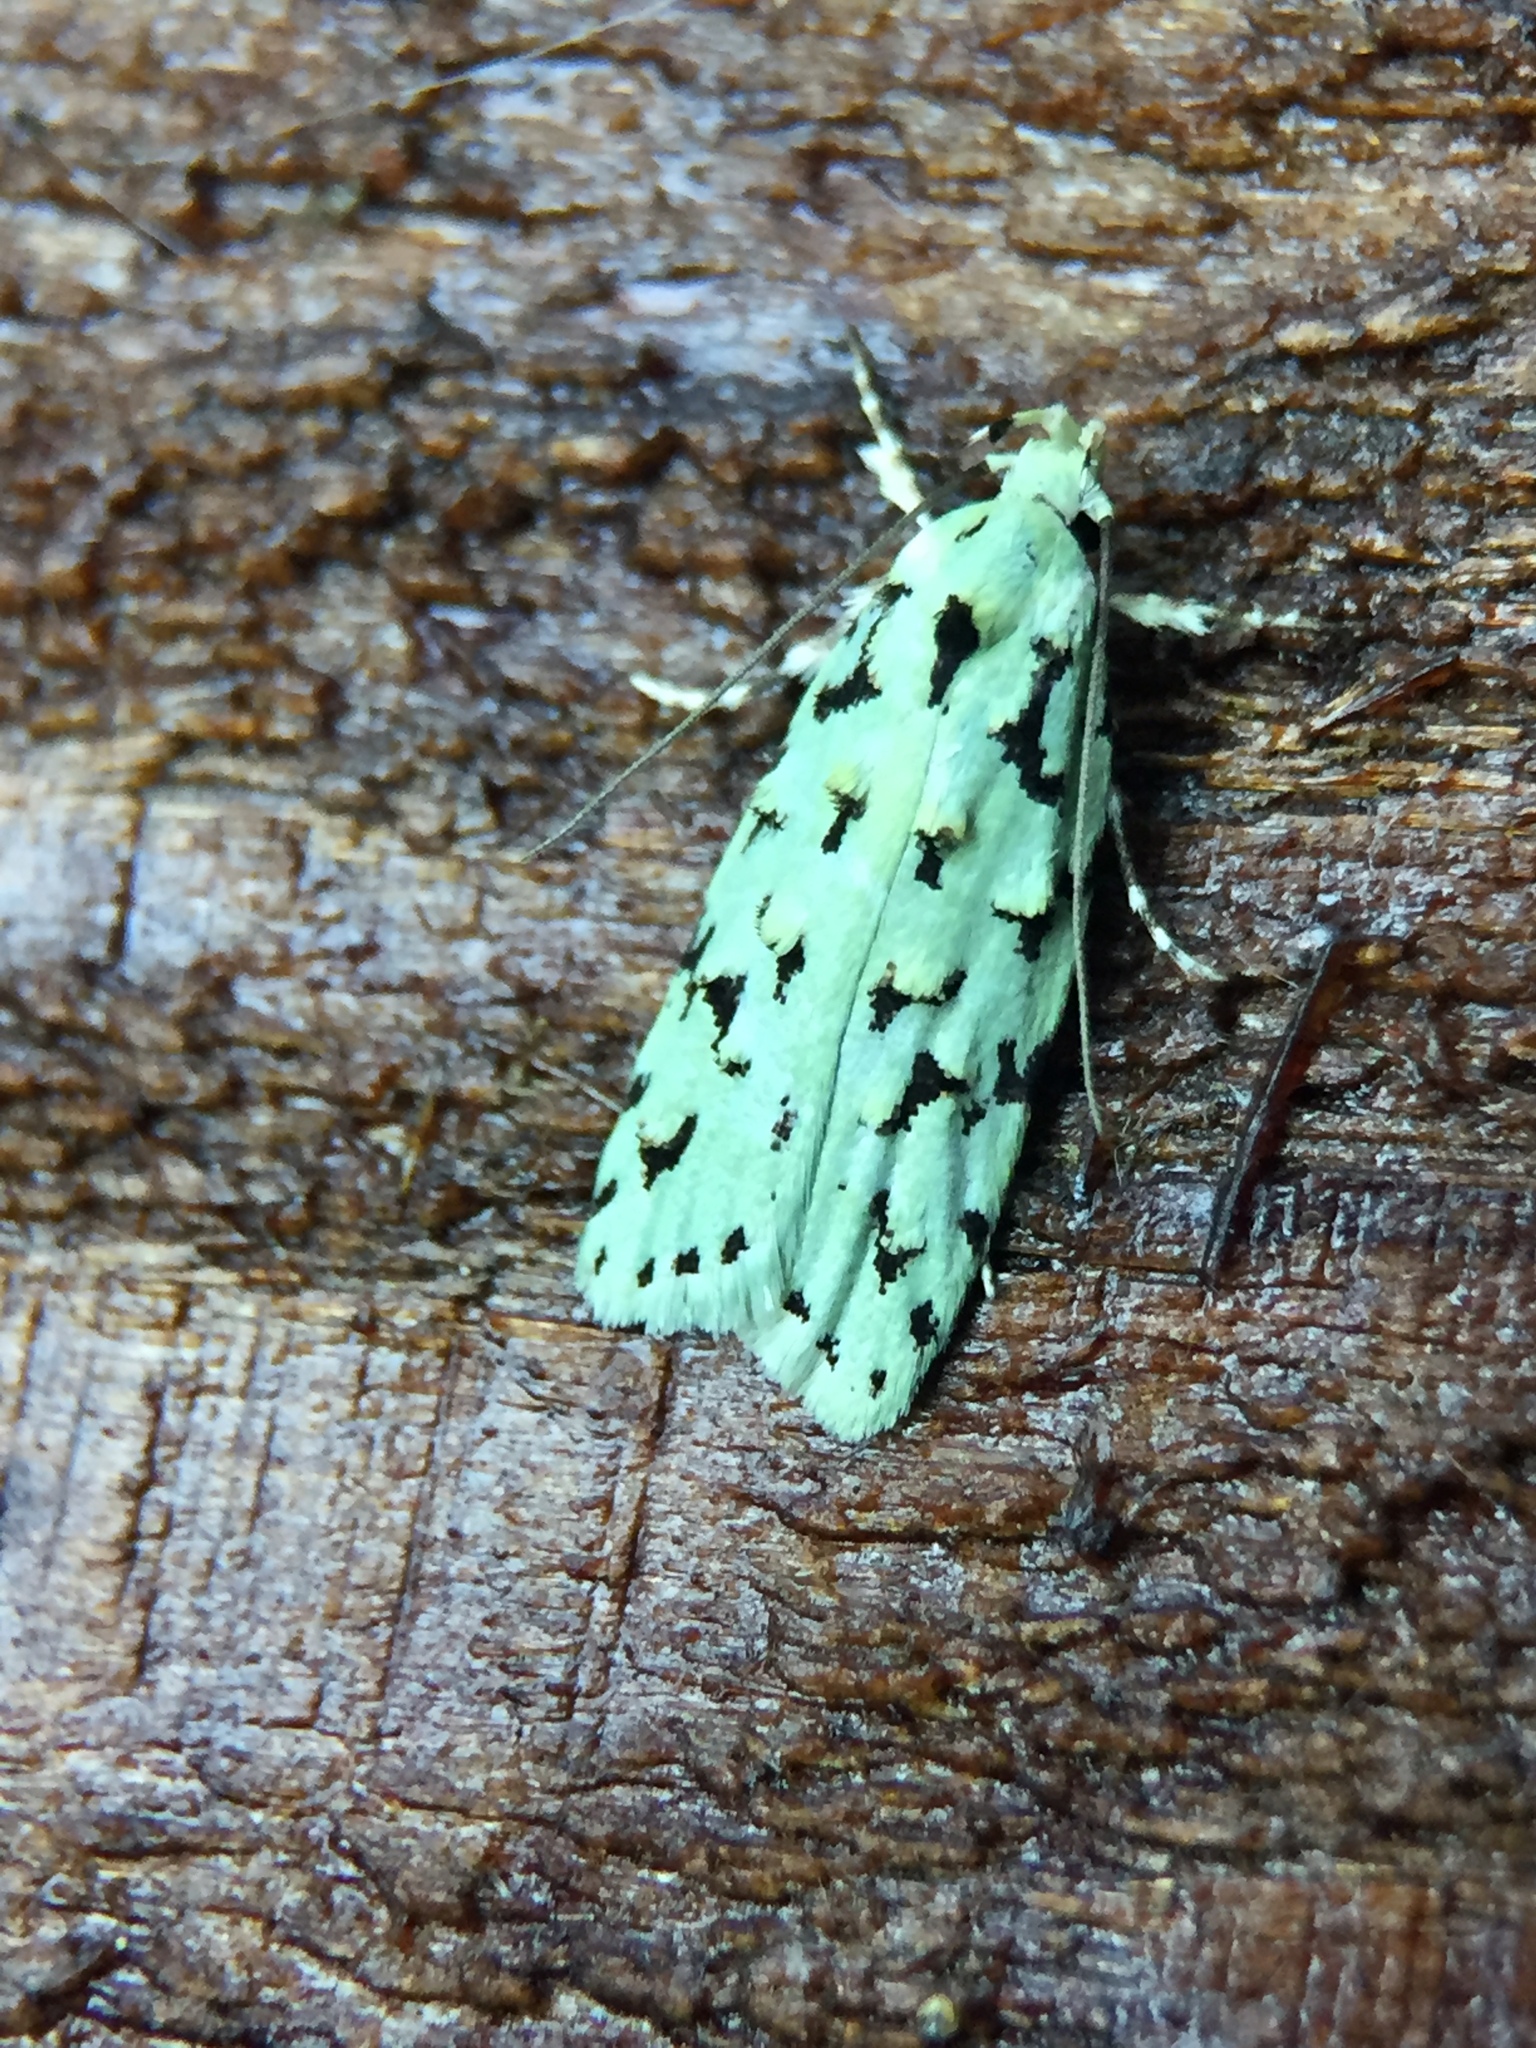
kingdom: Animalia
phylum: Arthropoda
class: Insecta
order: Lepidoptera
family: Oecophoridae
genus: Izatha
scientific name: Izatha peroneanella
